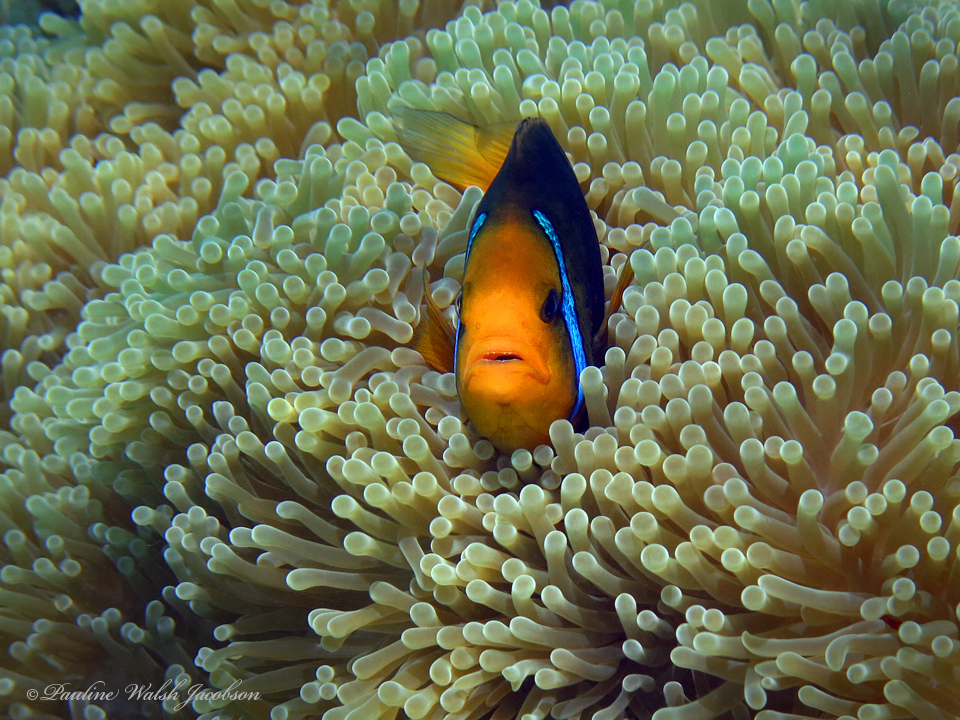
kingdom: Animalia
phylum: Chordata
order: Perciformes
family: Pomacentridae
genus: Amphiprion
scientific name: Amphiprion chrysopterus
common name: Orange-fin anemonefish
